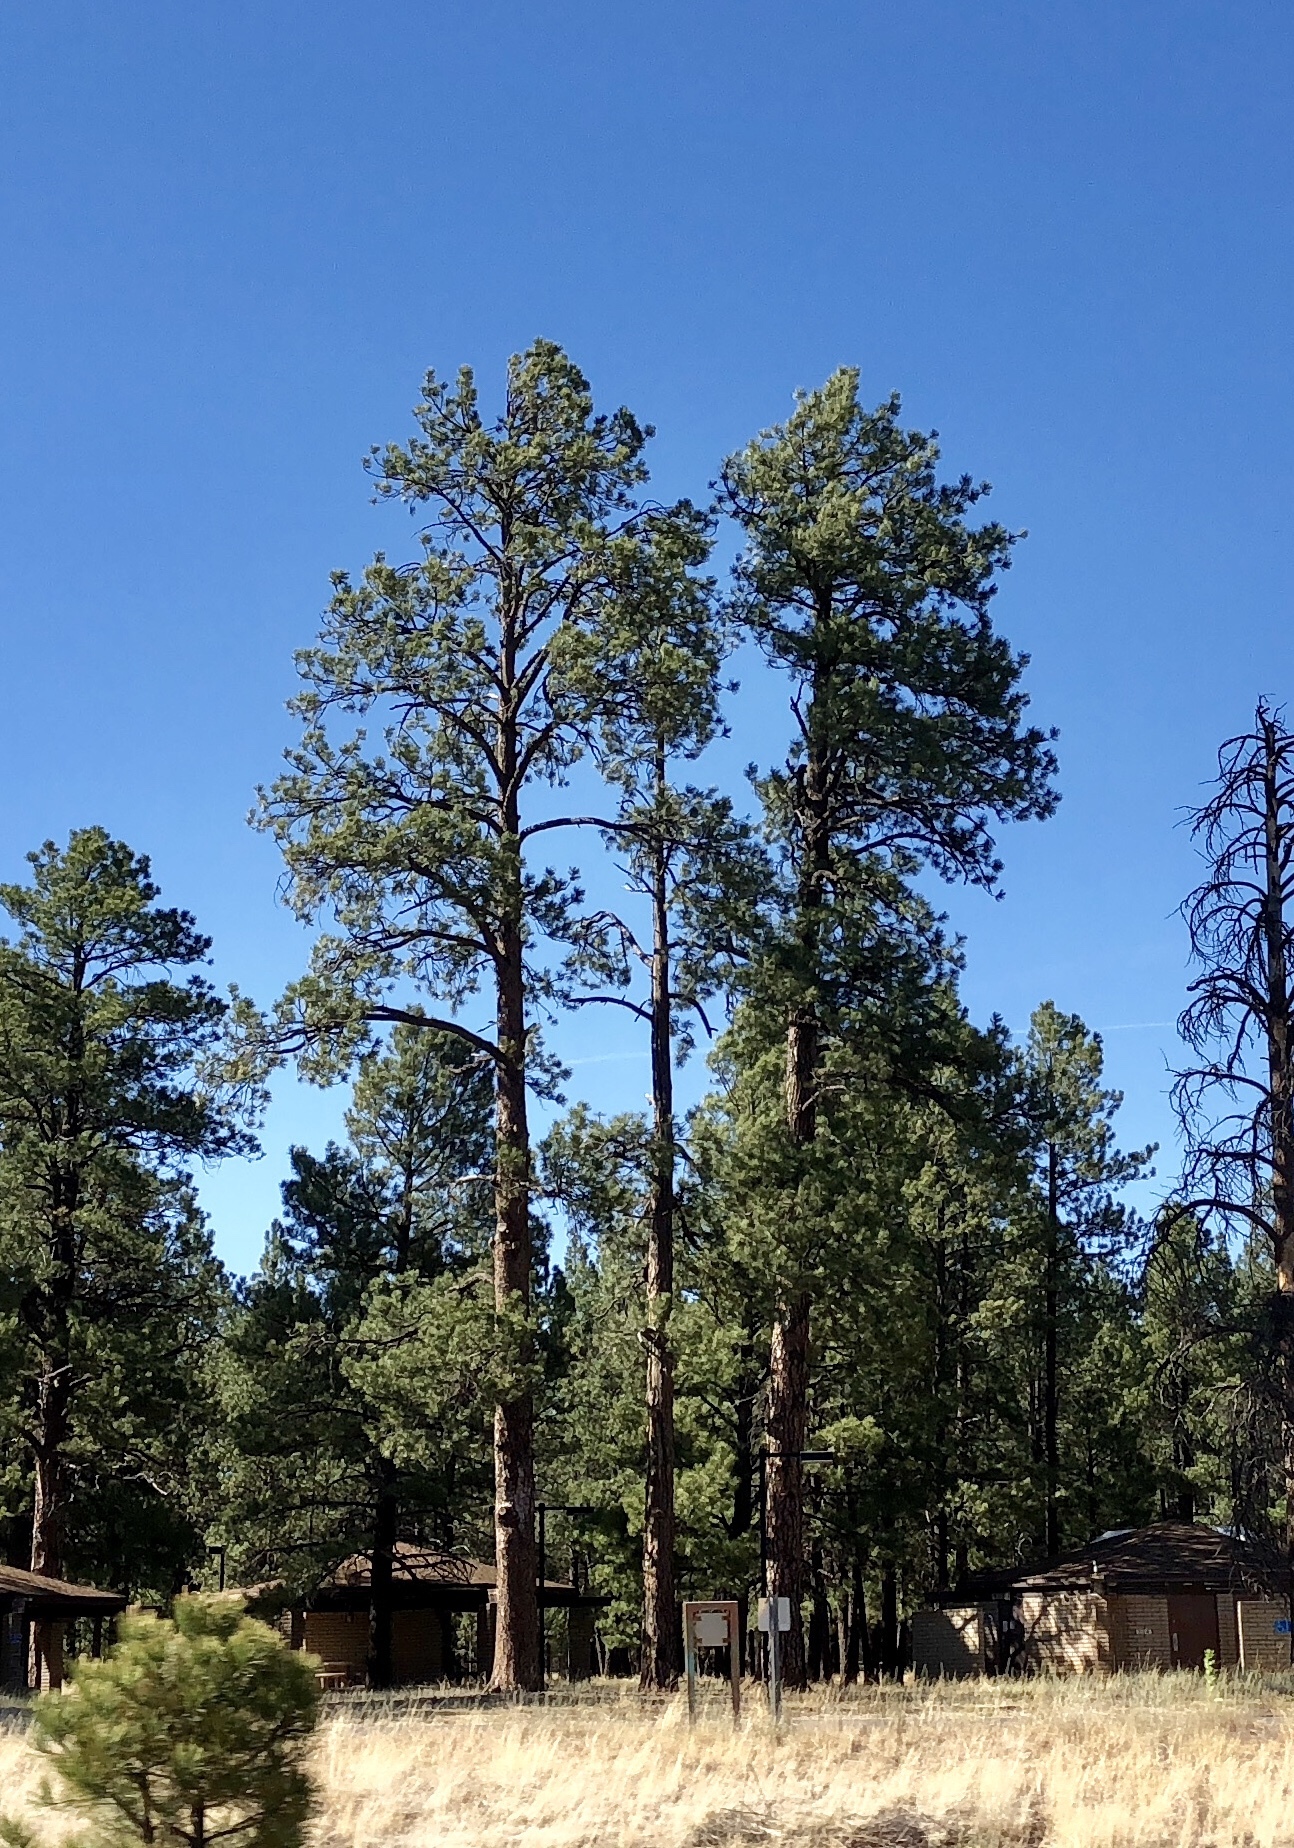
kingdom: Plantae
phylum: Tracheophyta
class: Pinopsida
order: Pinales
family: Pinaceae
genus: Pinus
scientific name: Pinus ponderosa
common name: Western yellow-pine
